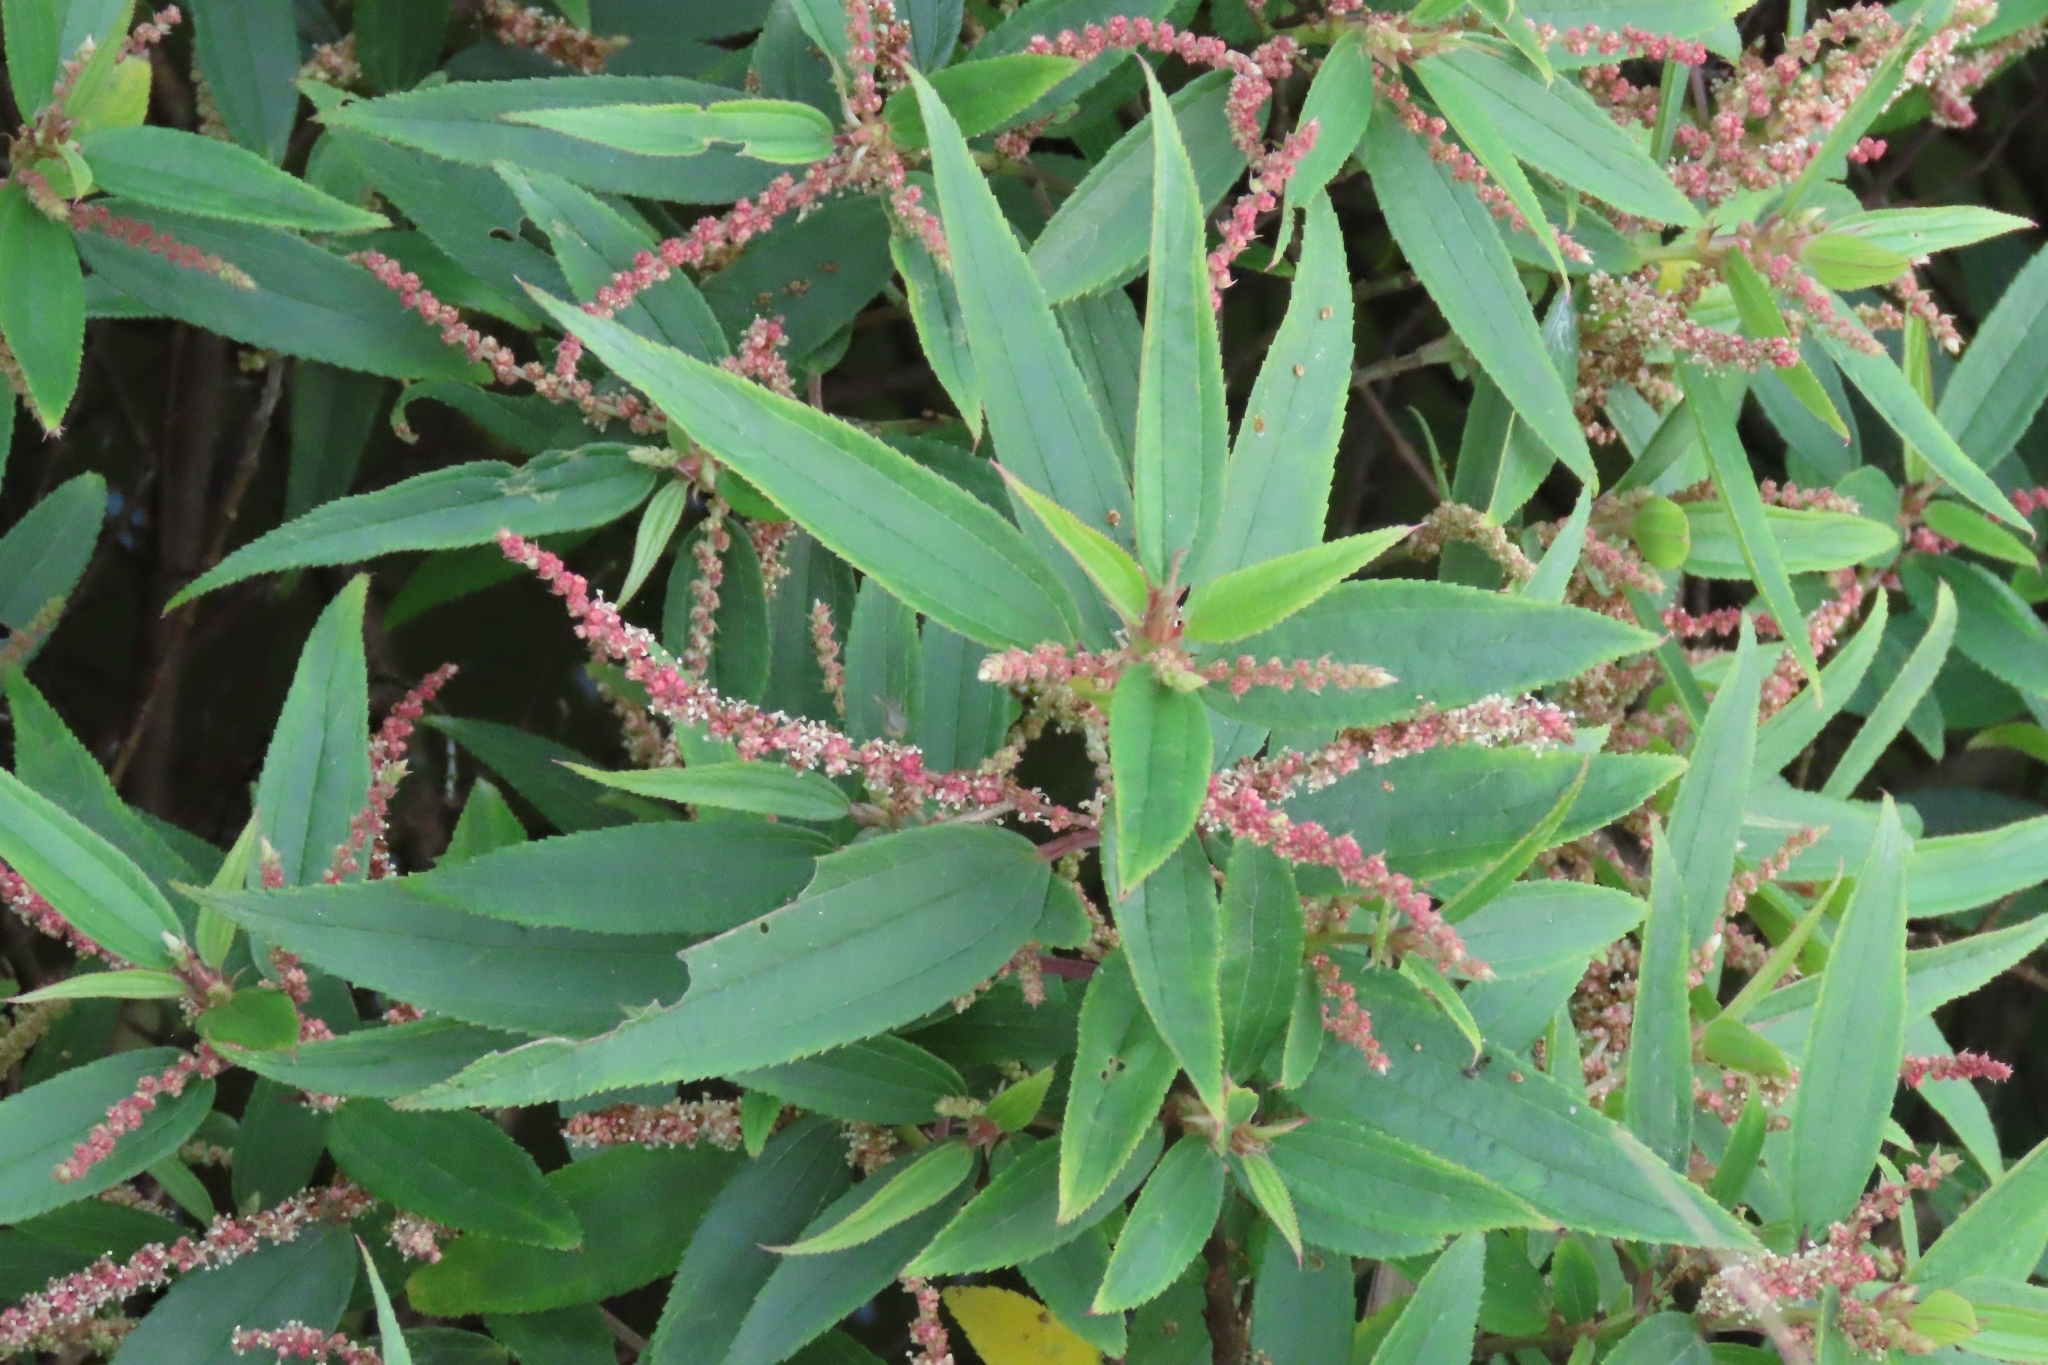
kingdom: Plantae
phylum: Tracheophyta
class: Magnoliopsida
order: Rosales
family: Urticaceae
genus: Boehmeria
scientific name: Boehmeria densiflora
